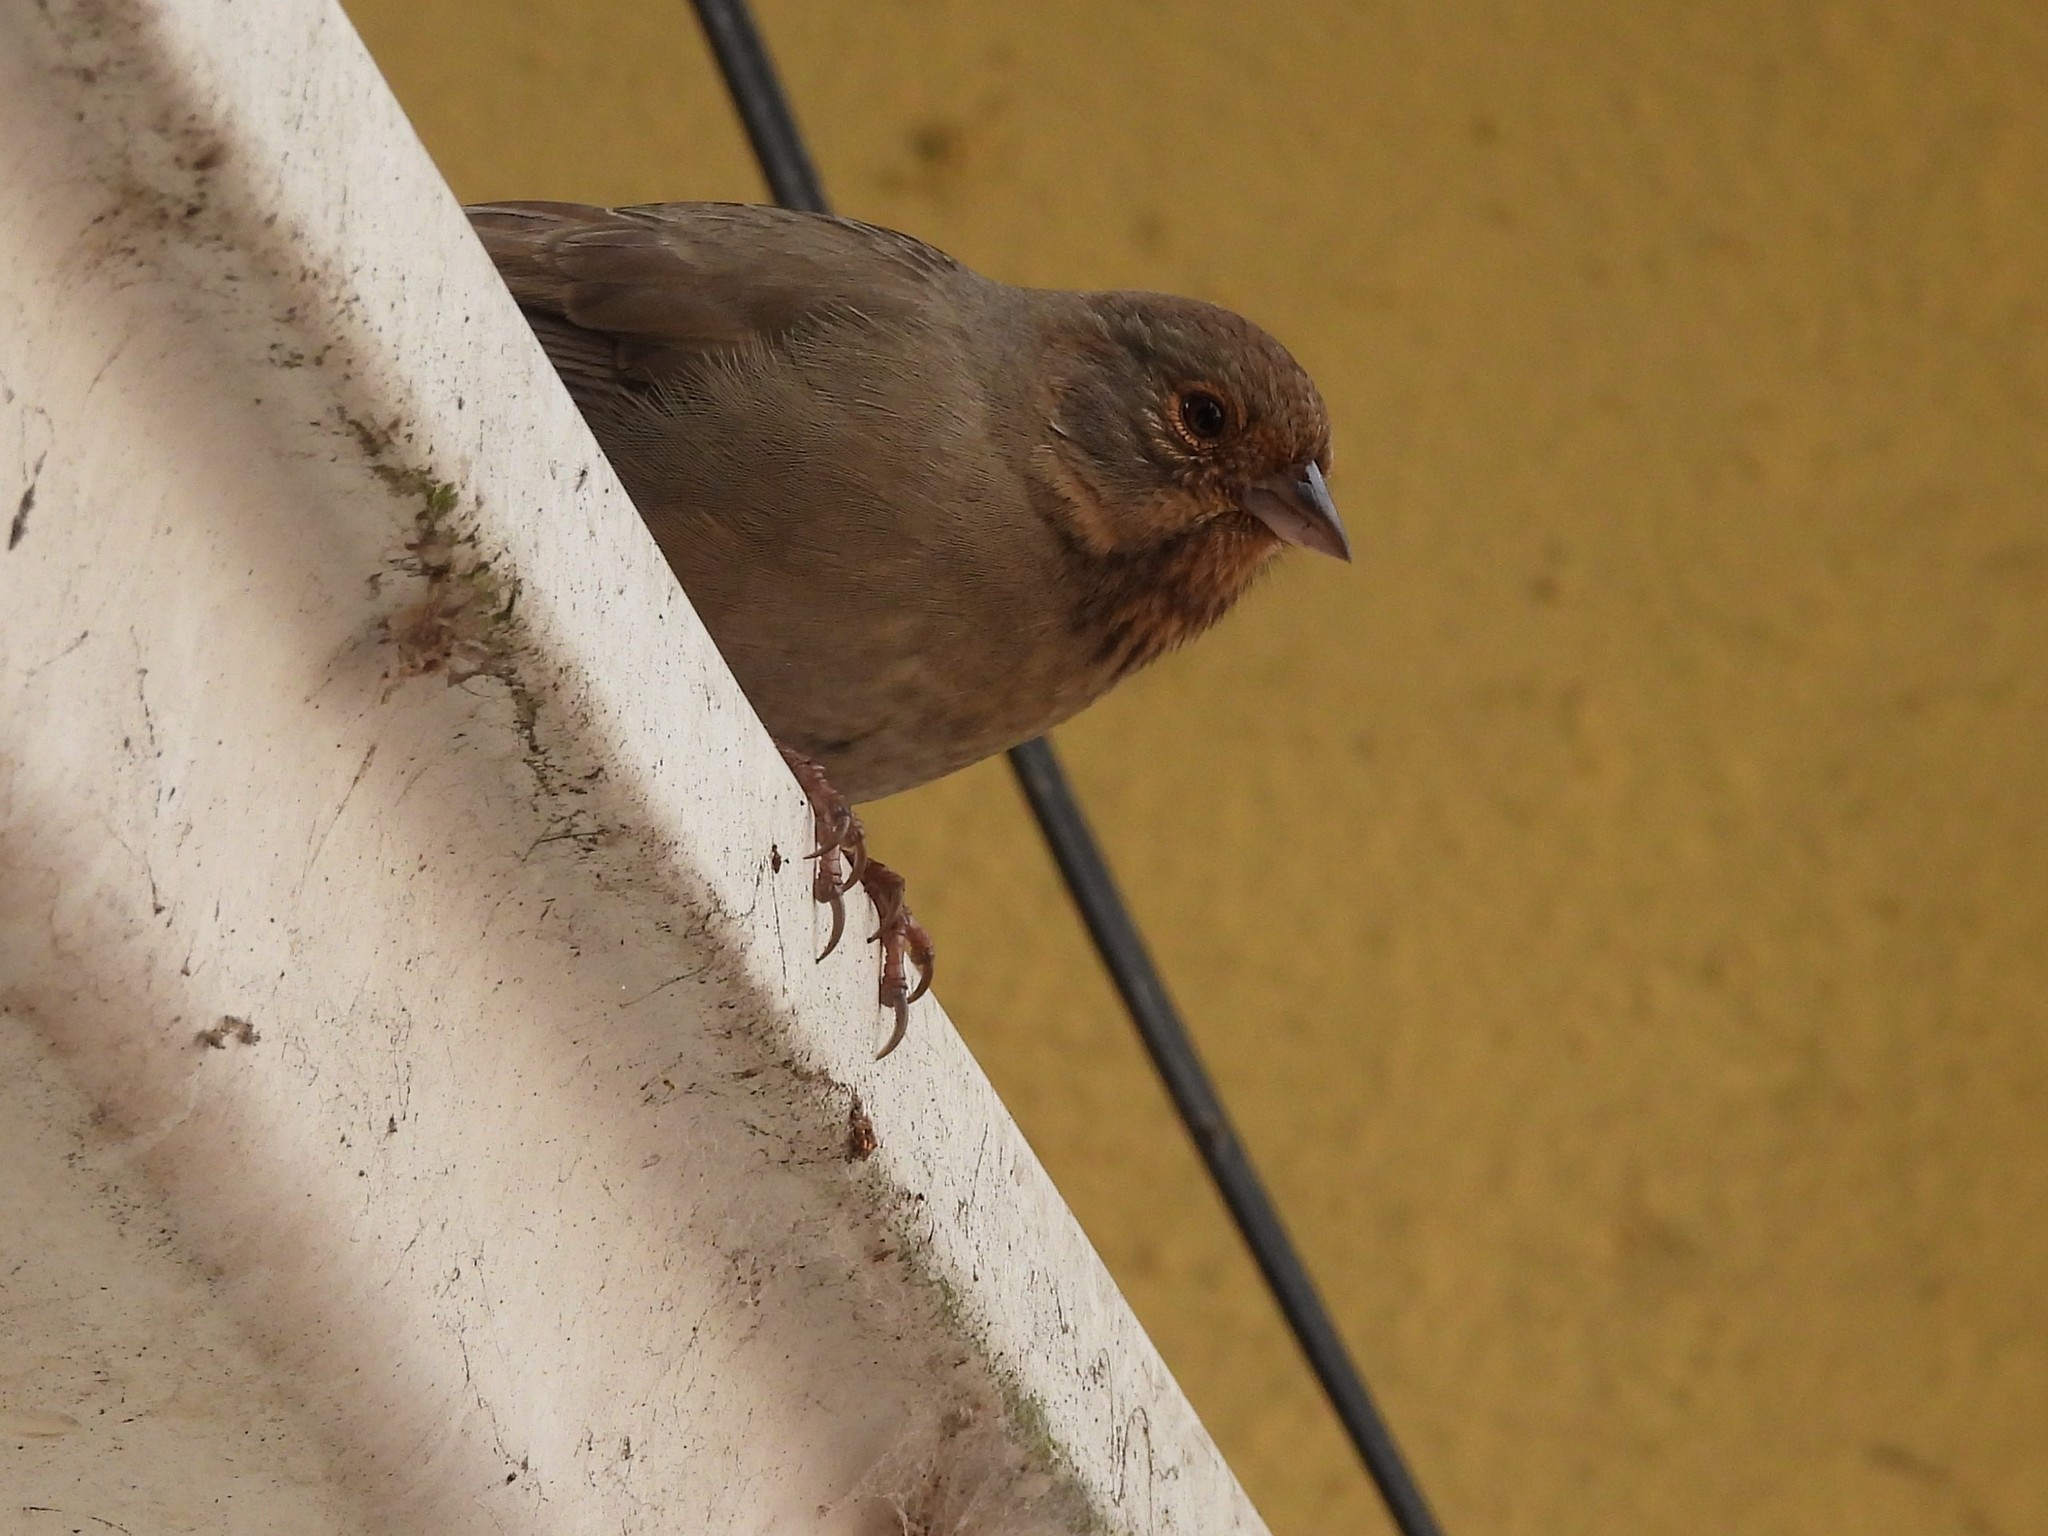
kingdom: Animalia
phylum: Chordata
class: Aves
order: Passeriformes
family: Passerellidae
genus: Melozone
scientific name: Melozone crissalis
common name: California towhee
